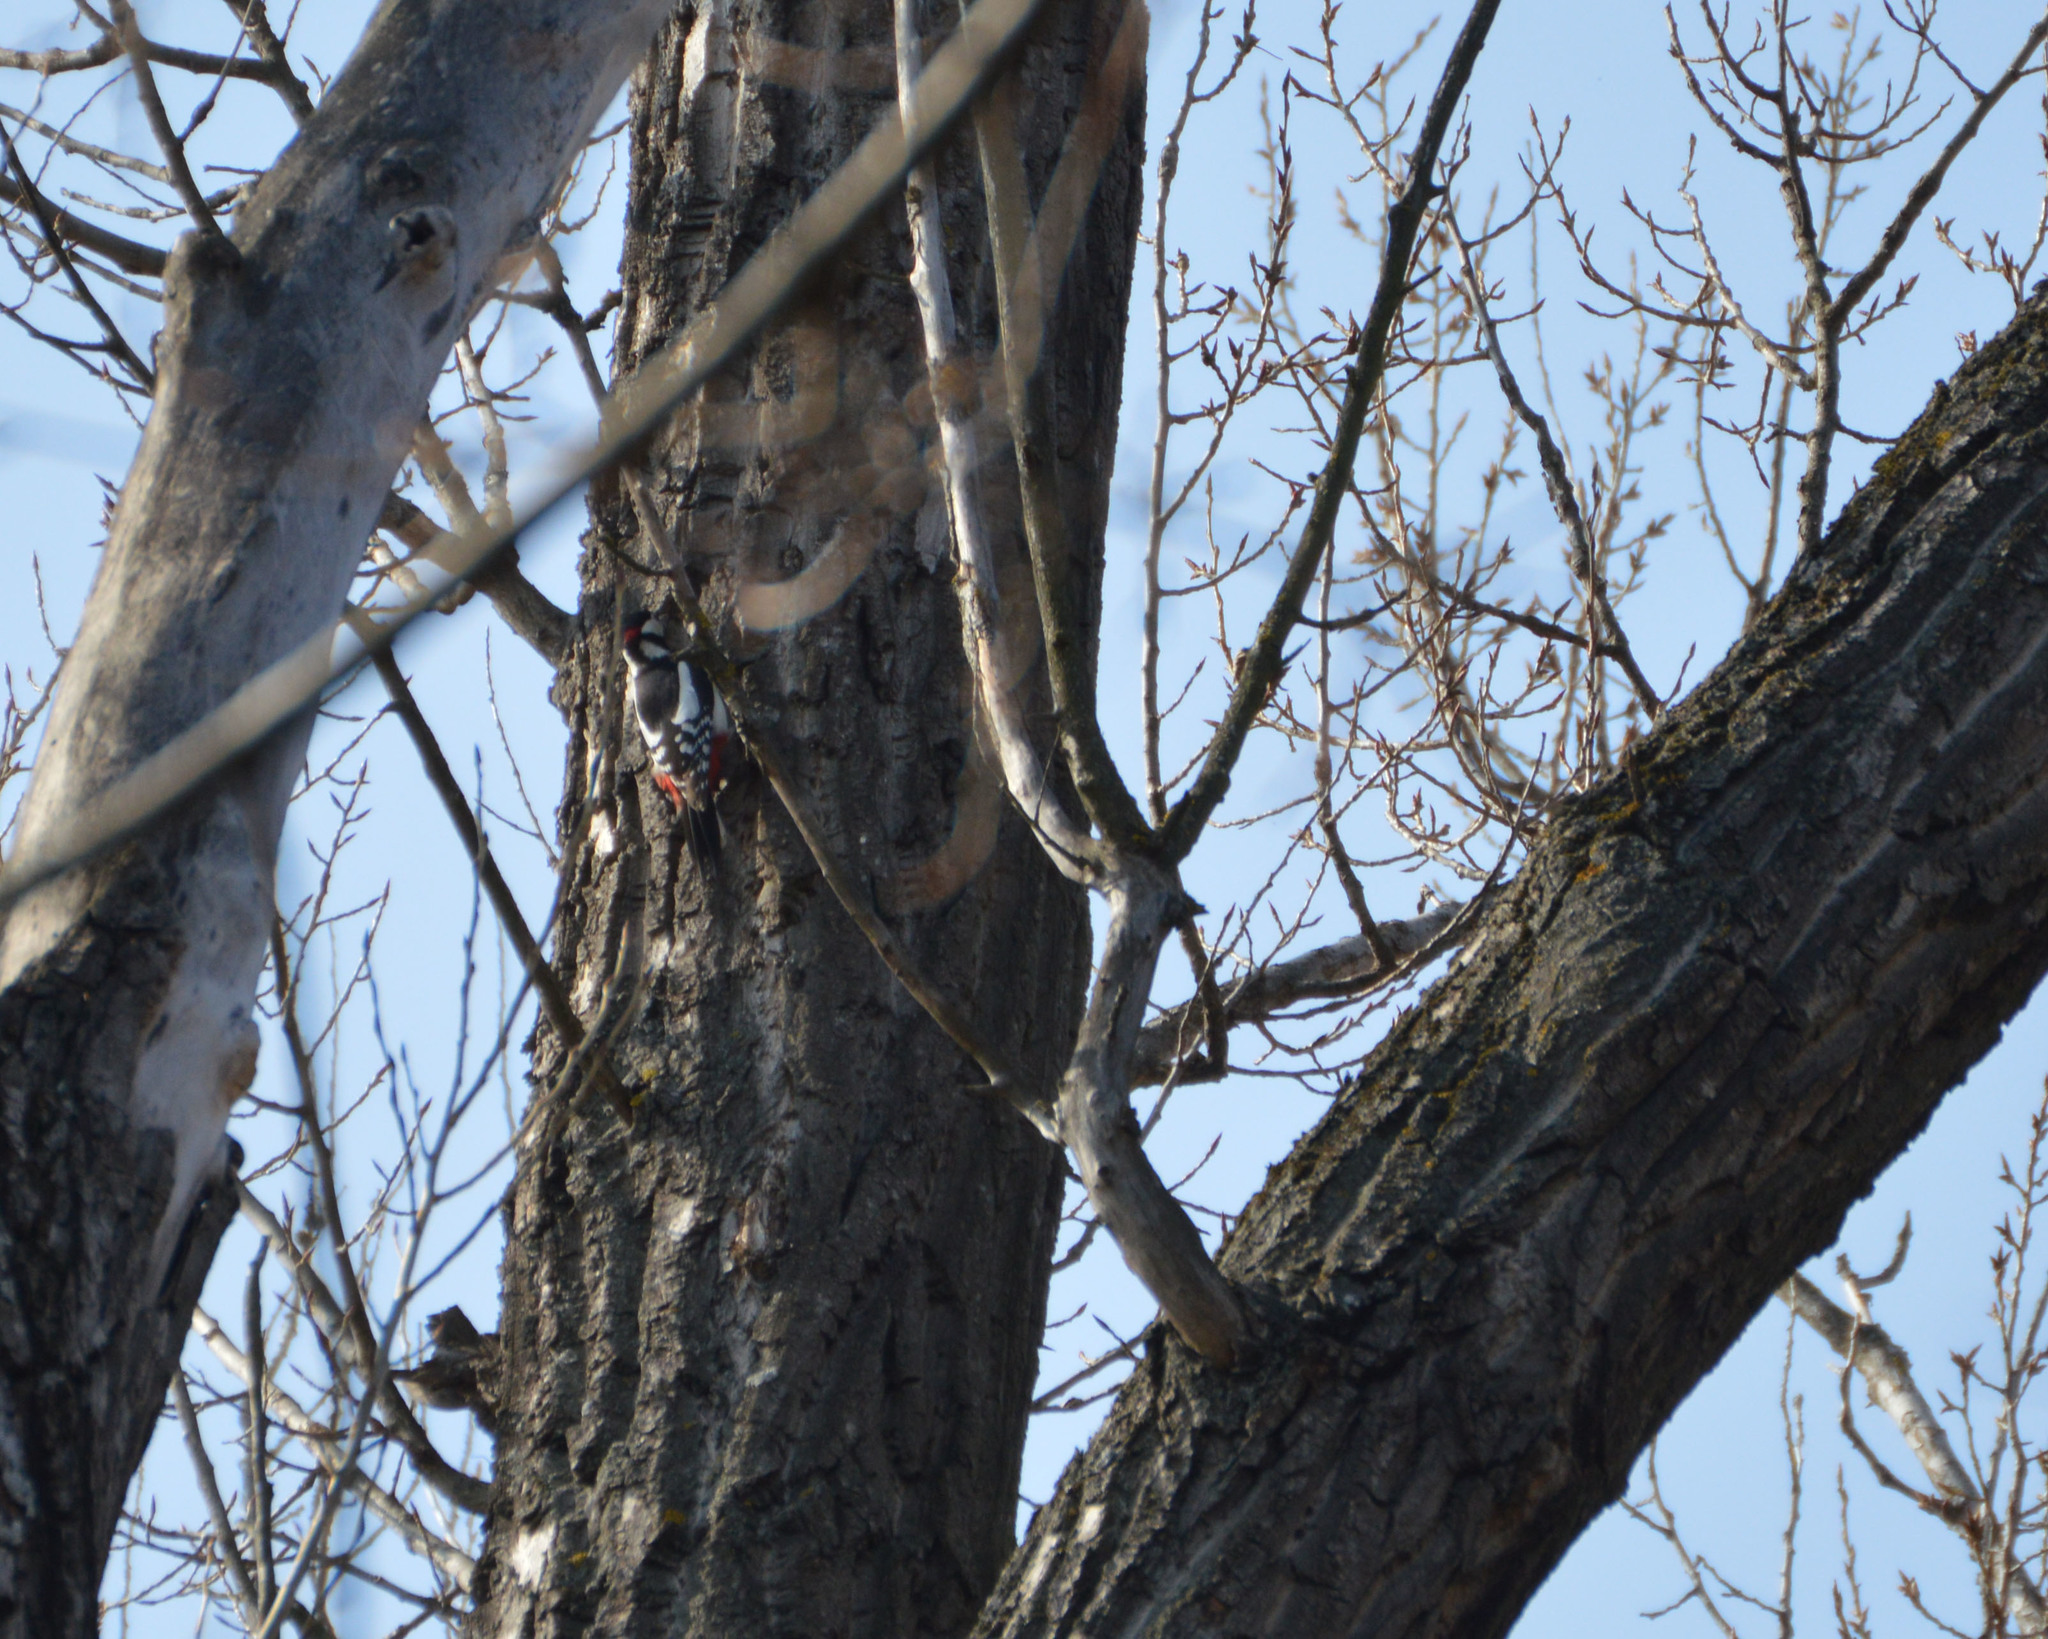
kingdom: Animalia
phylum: Chordata
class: Aves
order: Piciformes
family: Picidae
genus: Dendrocopos
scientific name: Dendrocopos major
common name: Great spotted woodpecker
